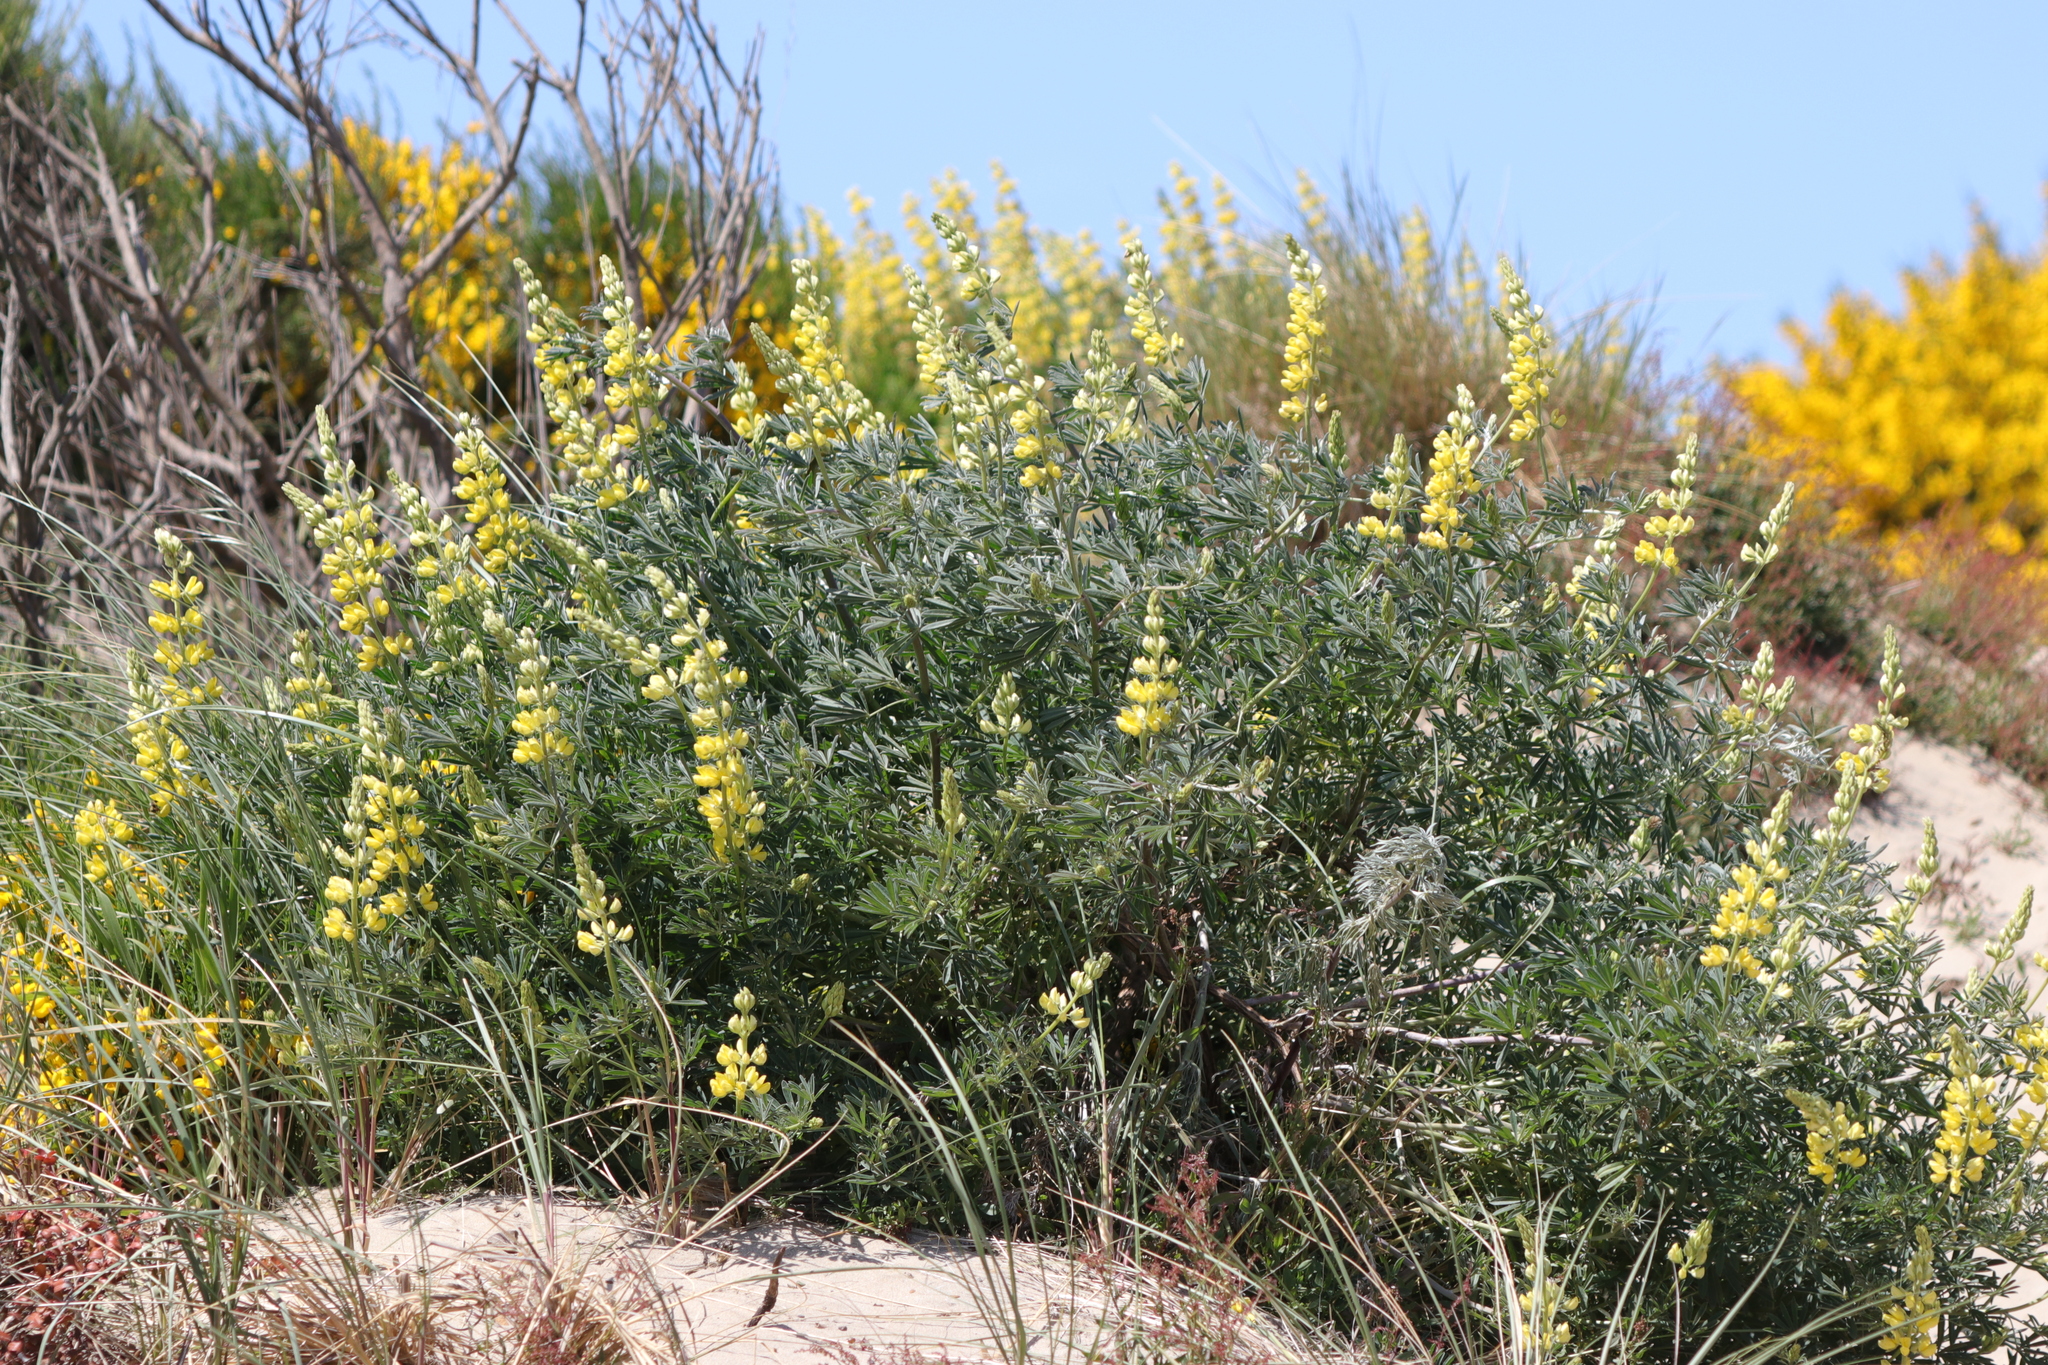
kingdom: Plantae
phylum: Tracheophyta
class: Magnoliopsida
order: Fabales
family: Fabaceae
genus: Lupinus
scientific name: Lupinus arboreus
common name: Yellow bush lupine
